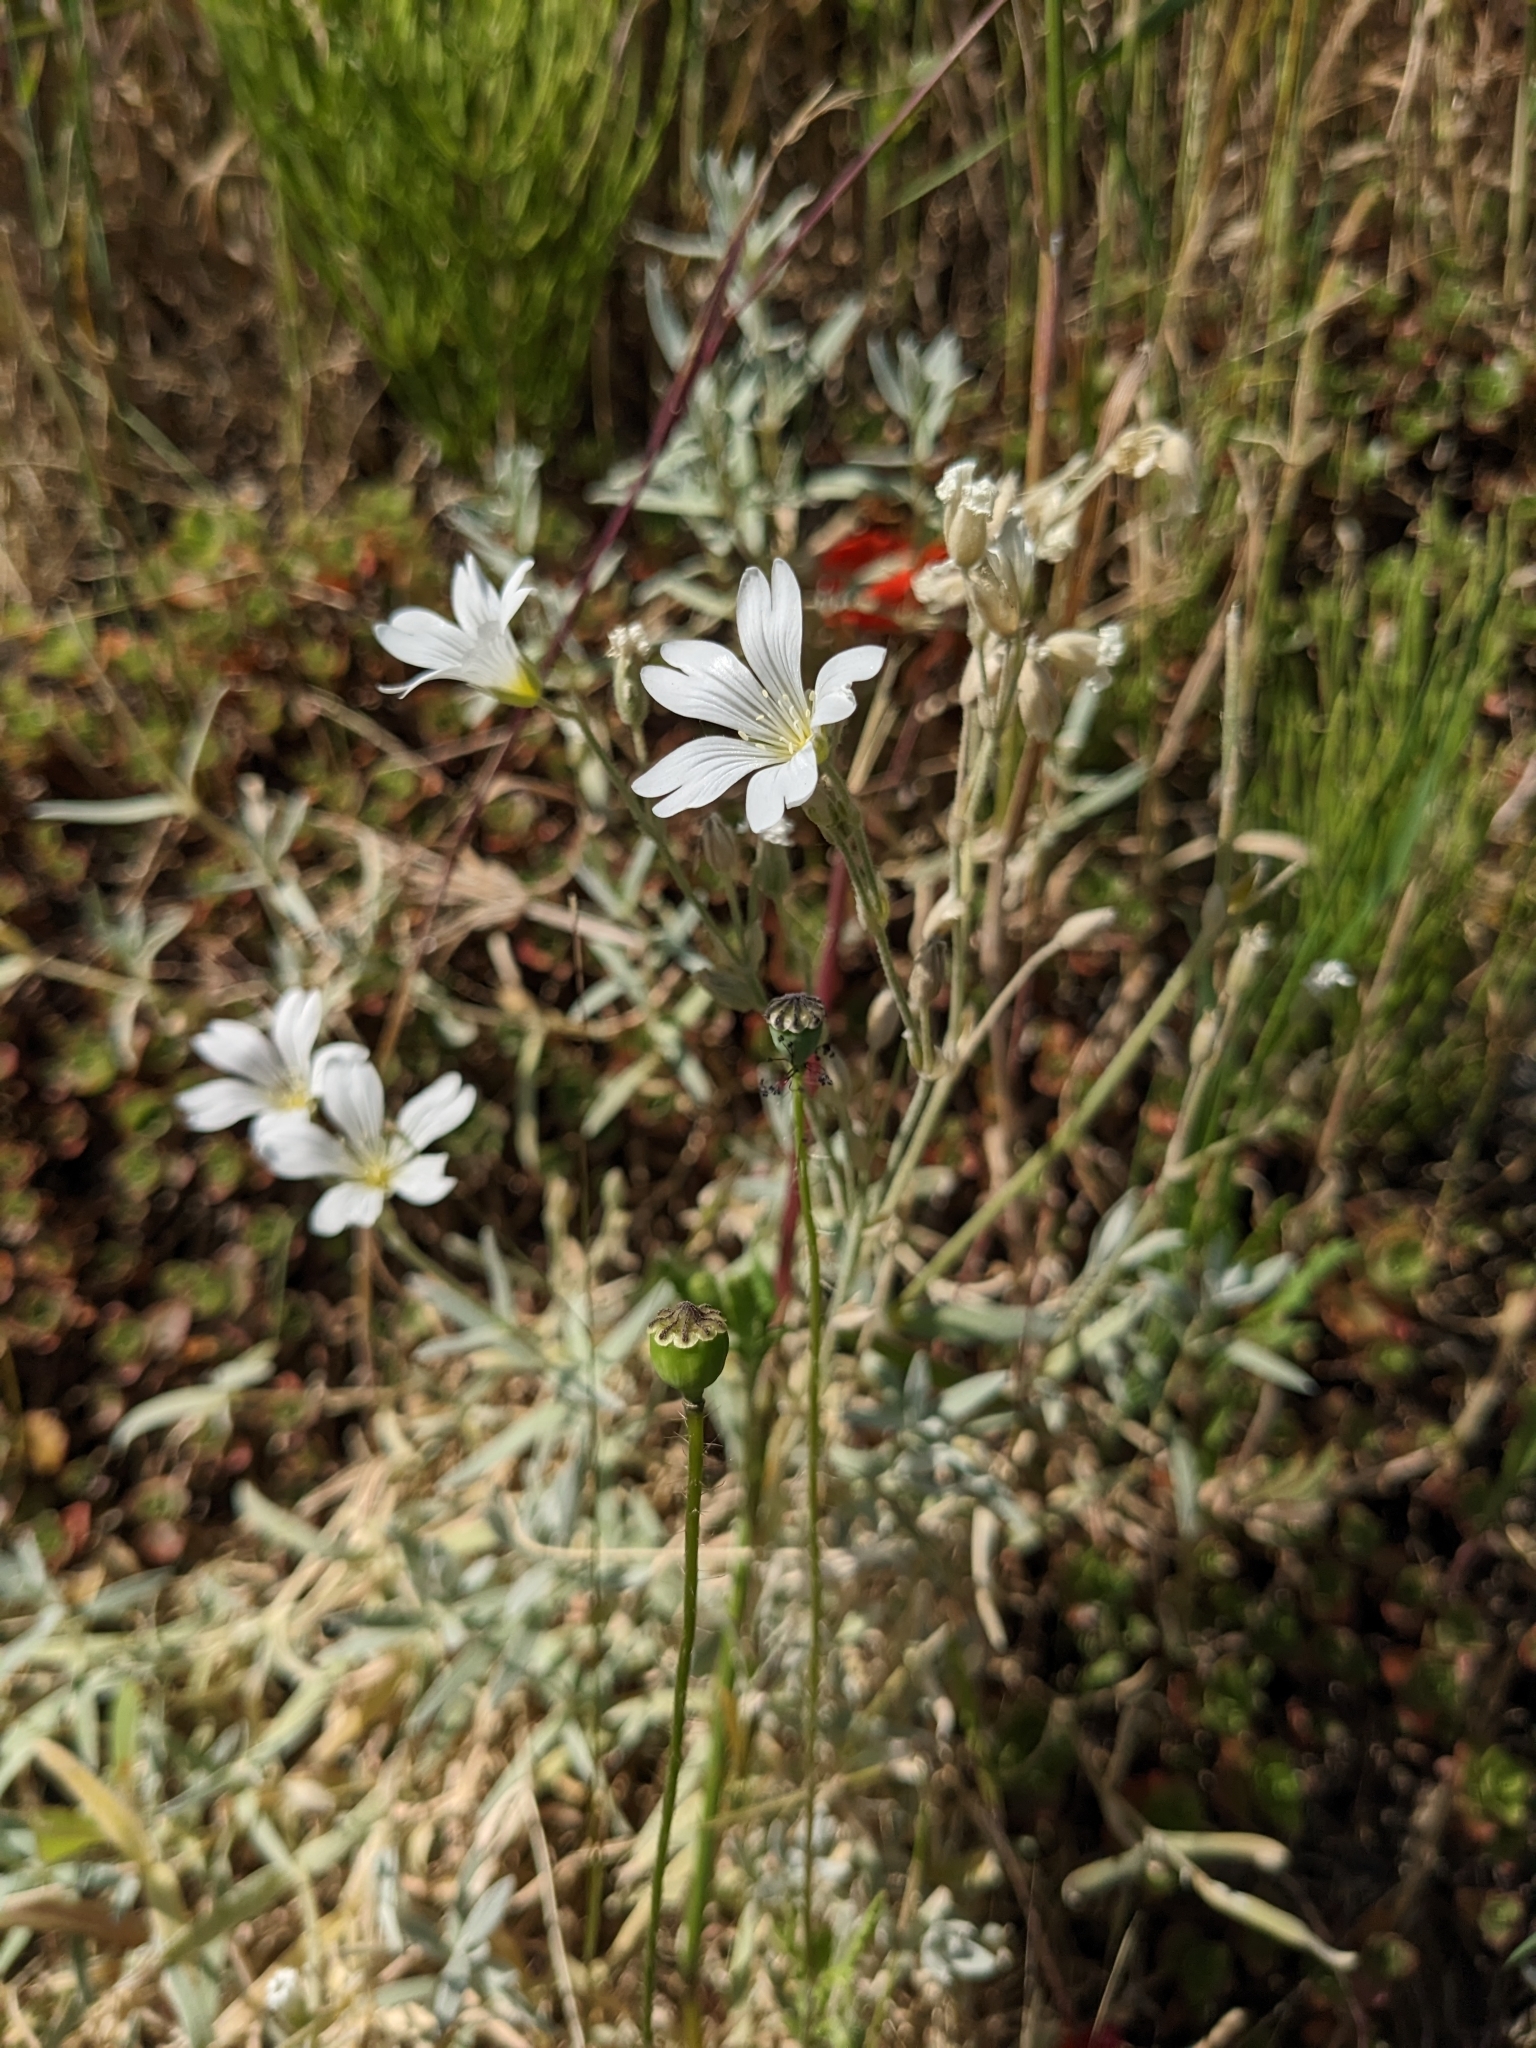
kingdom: Plantae
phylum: Tracheophyta
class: Magnoliopsida
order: Caryophyllales
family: Caryophyllaceae
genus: Cerastium
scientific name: Cerastium tomentosum
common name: Snow-in-summer
